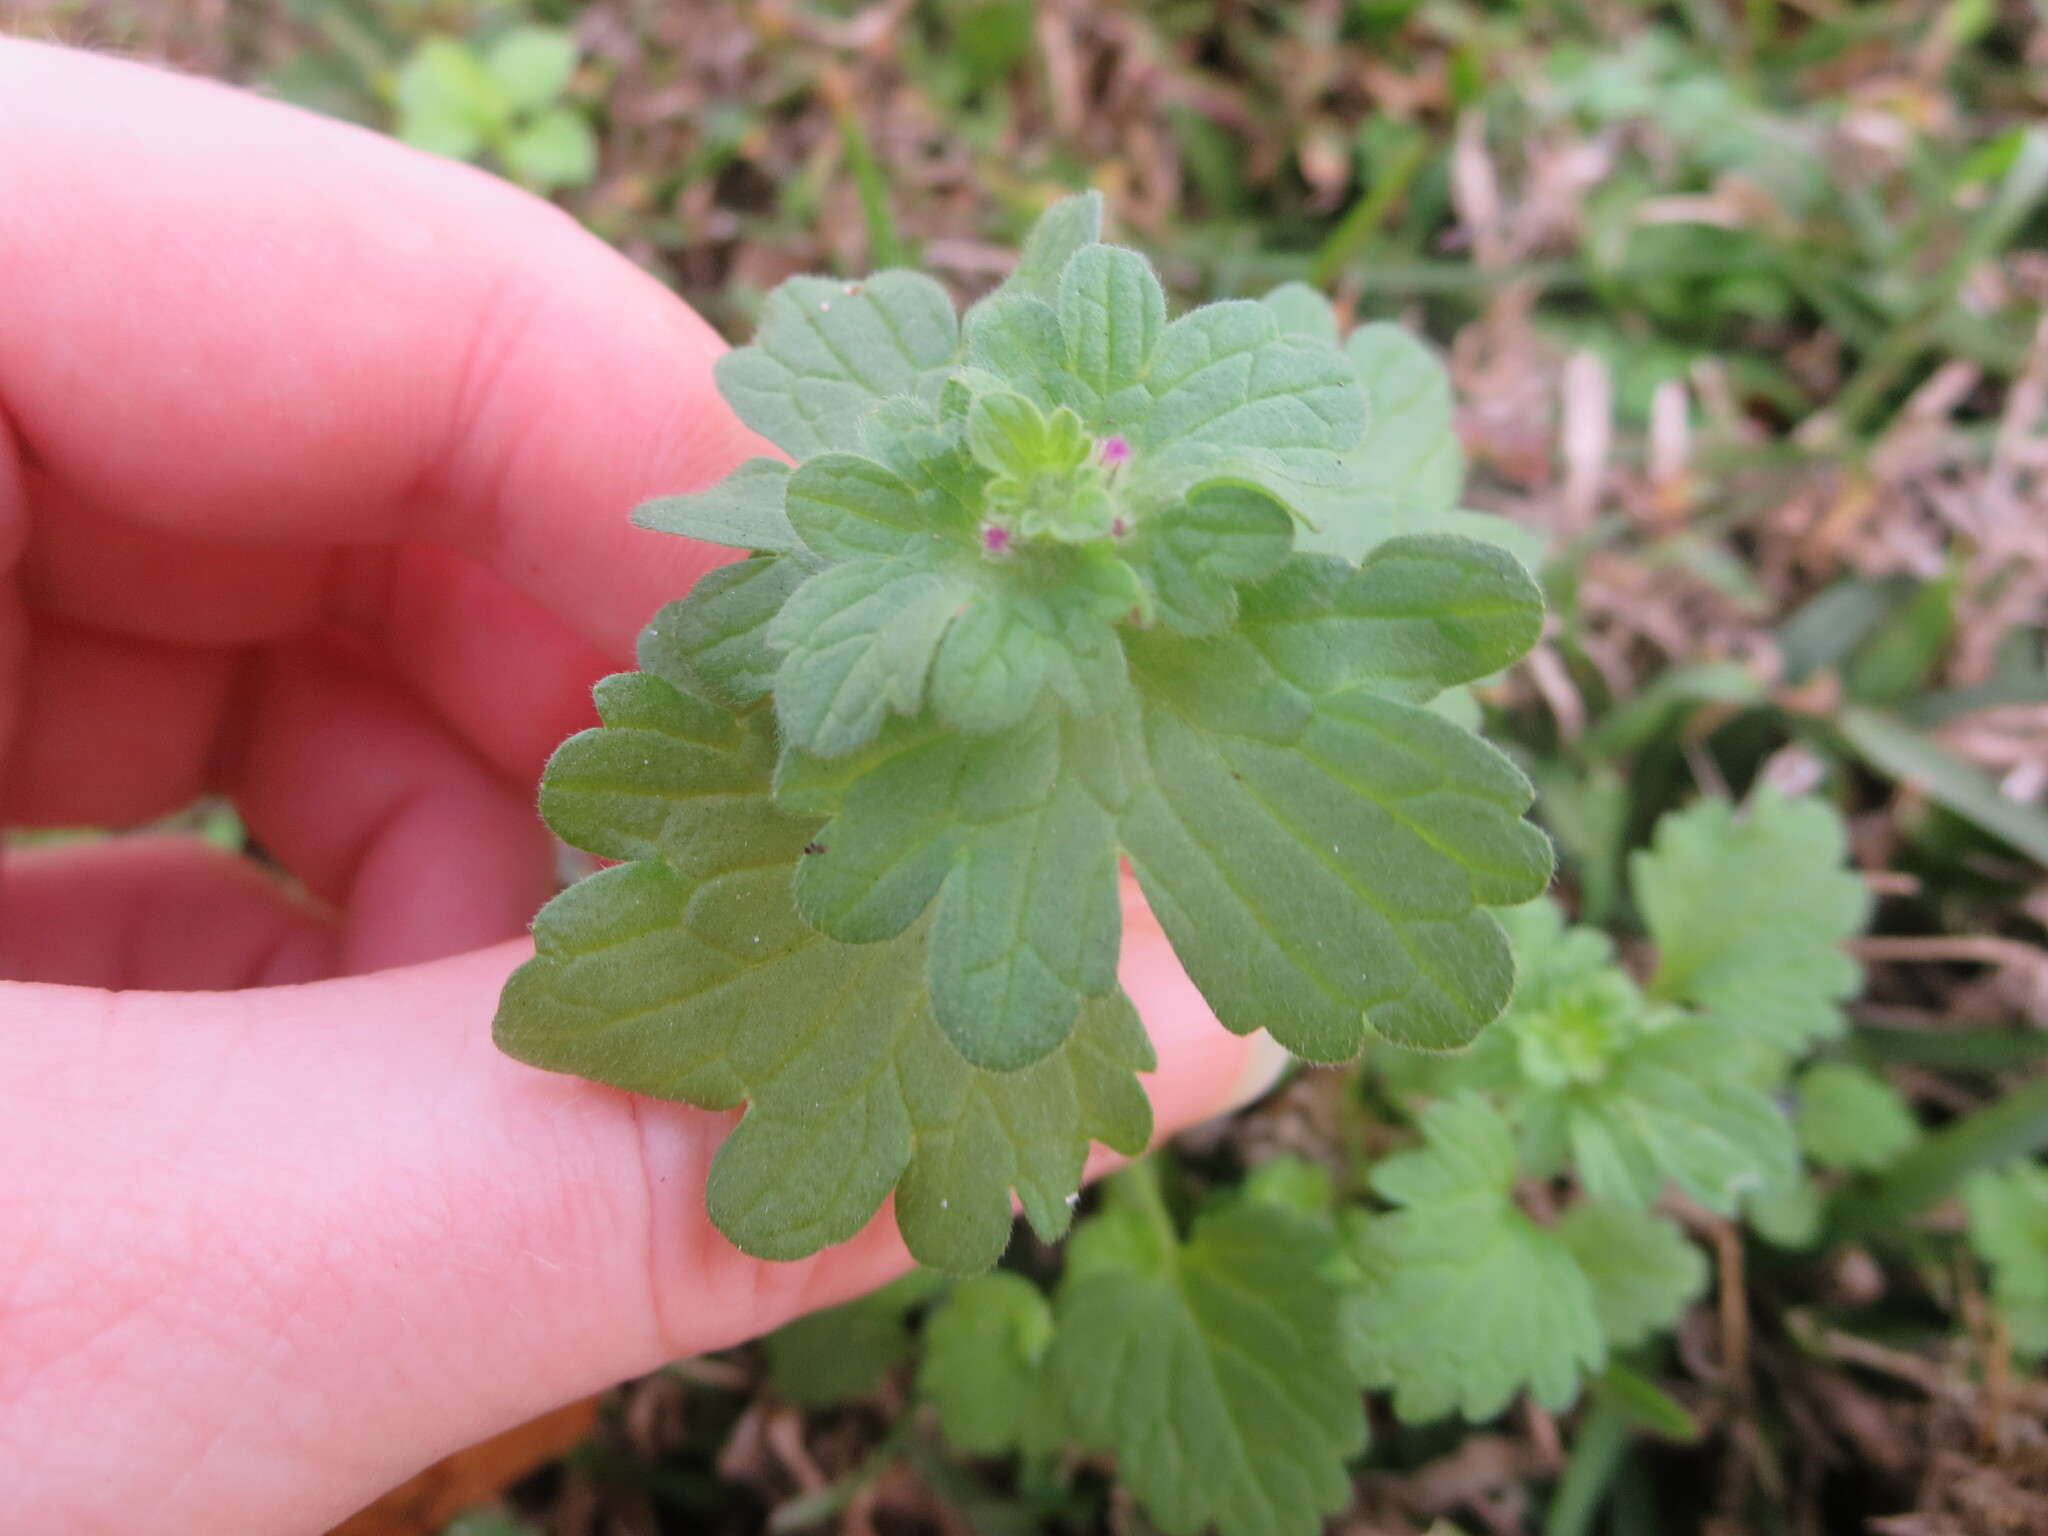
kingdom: Plantae
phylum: Tracheophyta
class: Magnoliopsida
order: Lamiales
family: Lamiaceae
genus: Lamium
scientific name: Lamium amplexicaule
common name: Henbit dead-nettle
